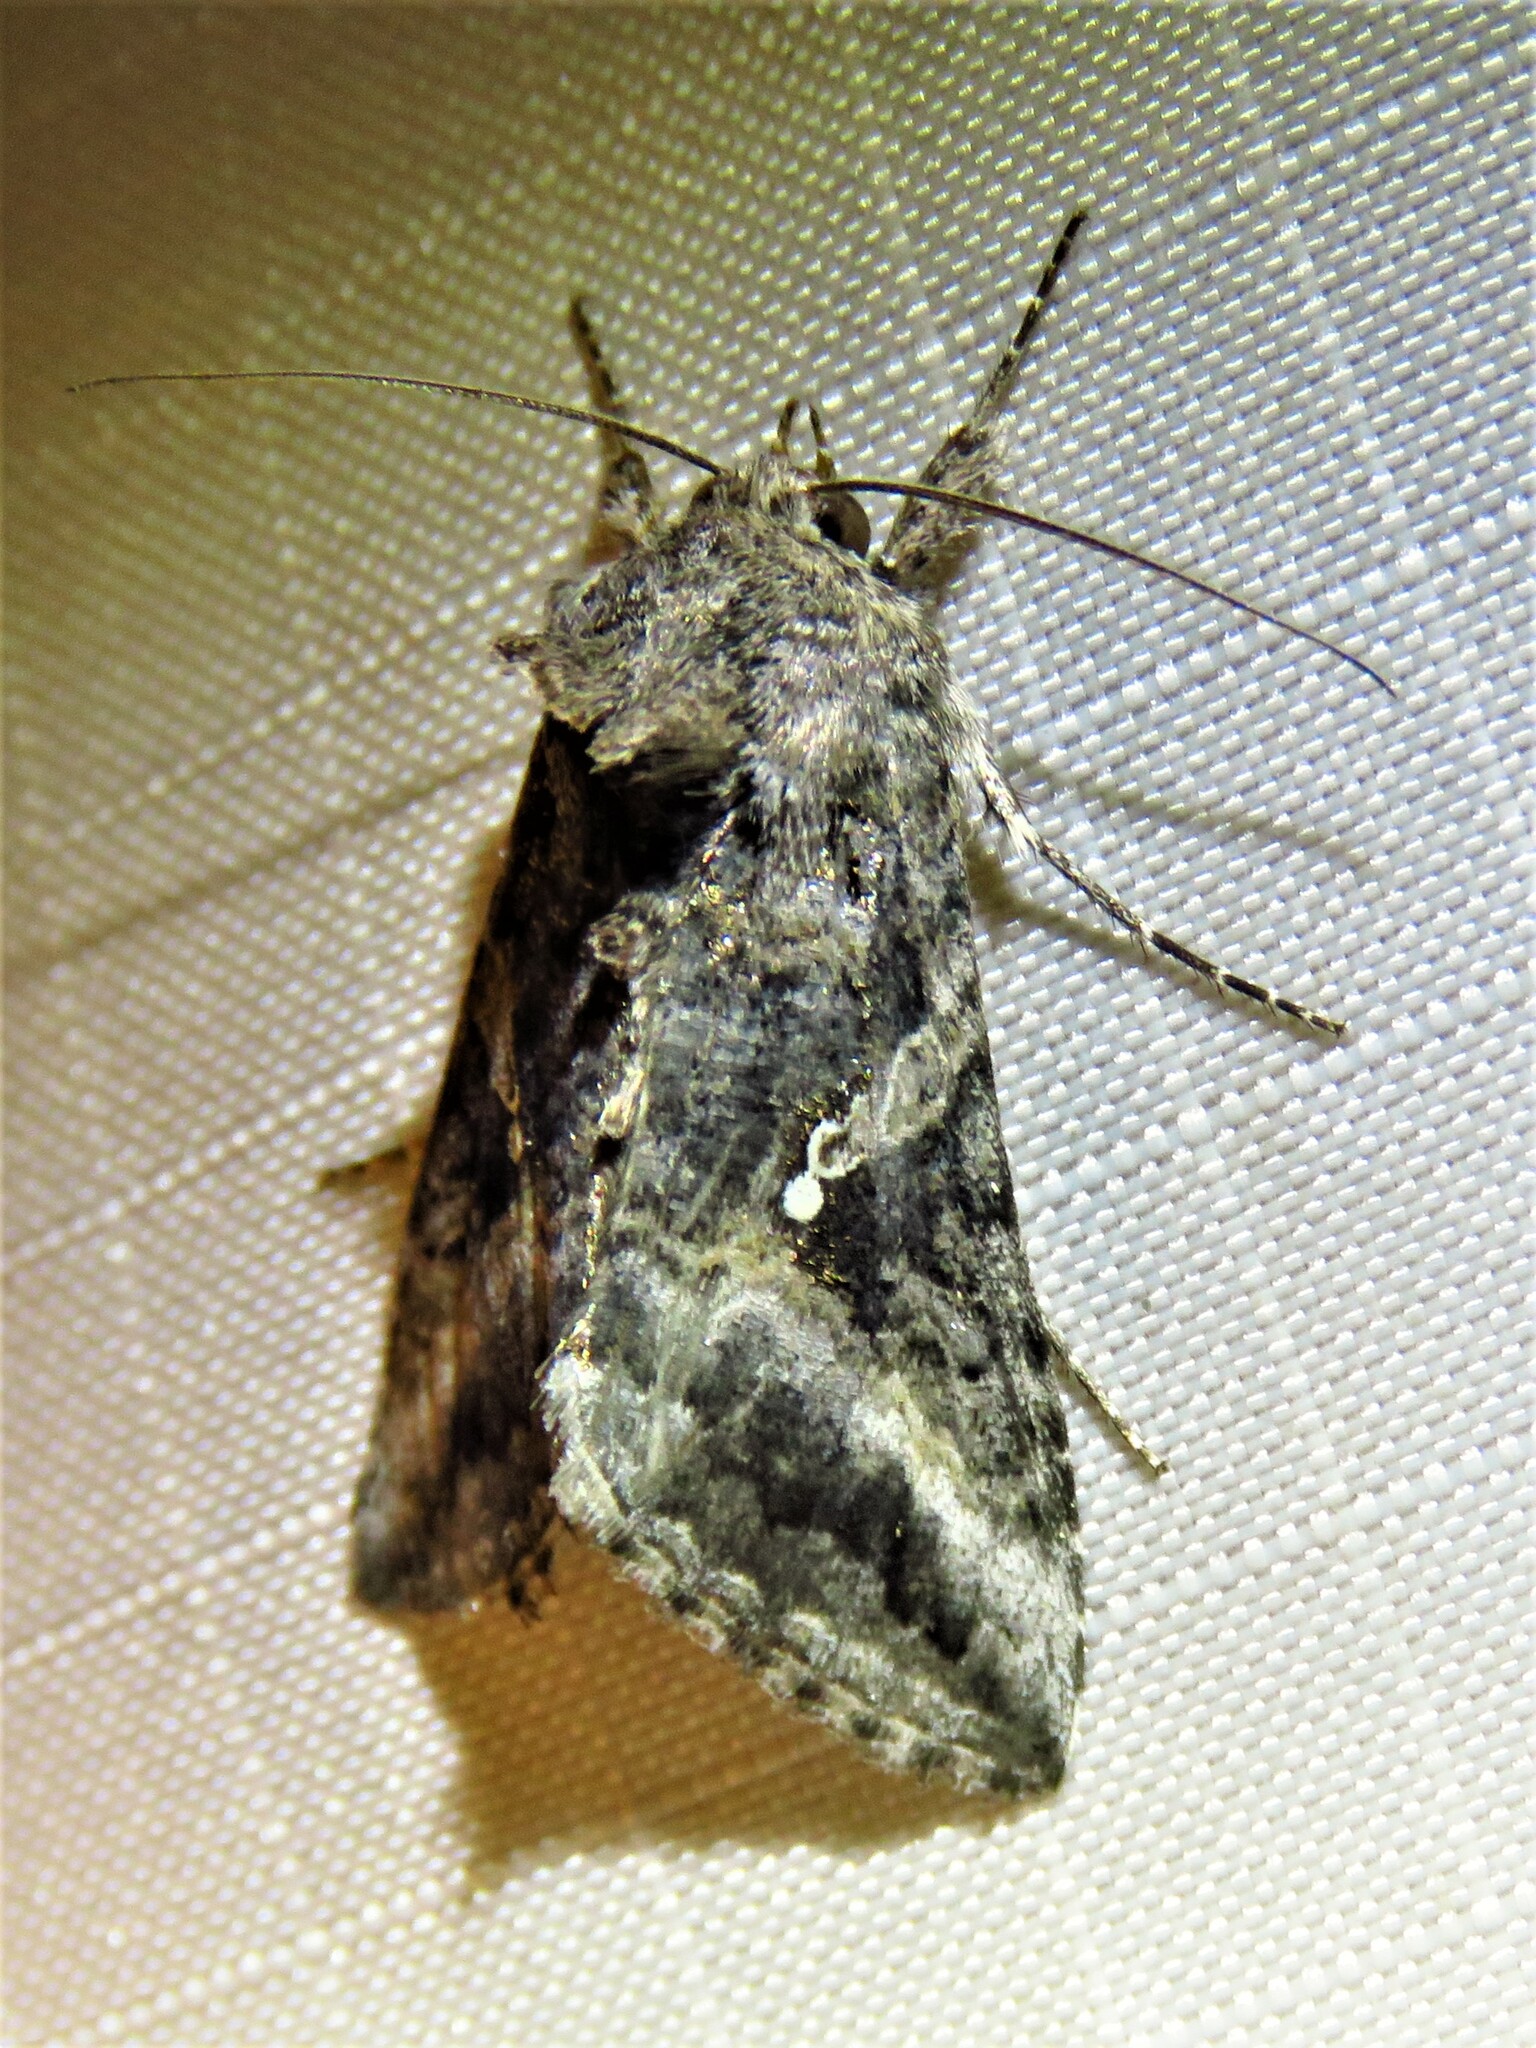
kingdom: Animalia
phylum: Arthropoda
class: Insecta
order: Lepidoptera
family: Noctuidae
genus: Rachiplusia
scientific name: Rachiplusia ou
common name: Gray looper moth
